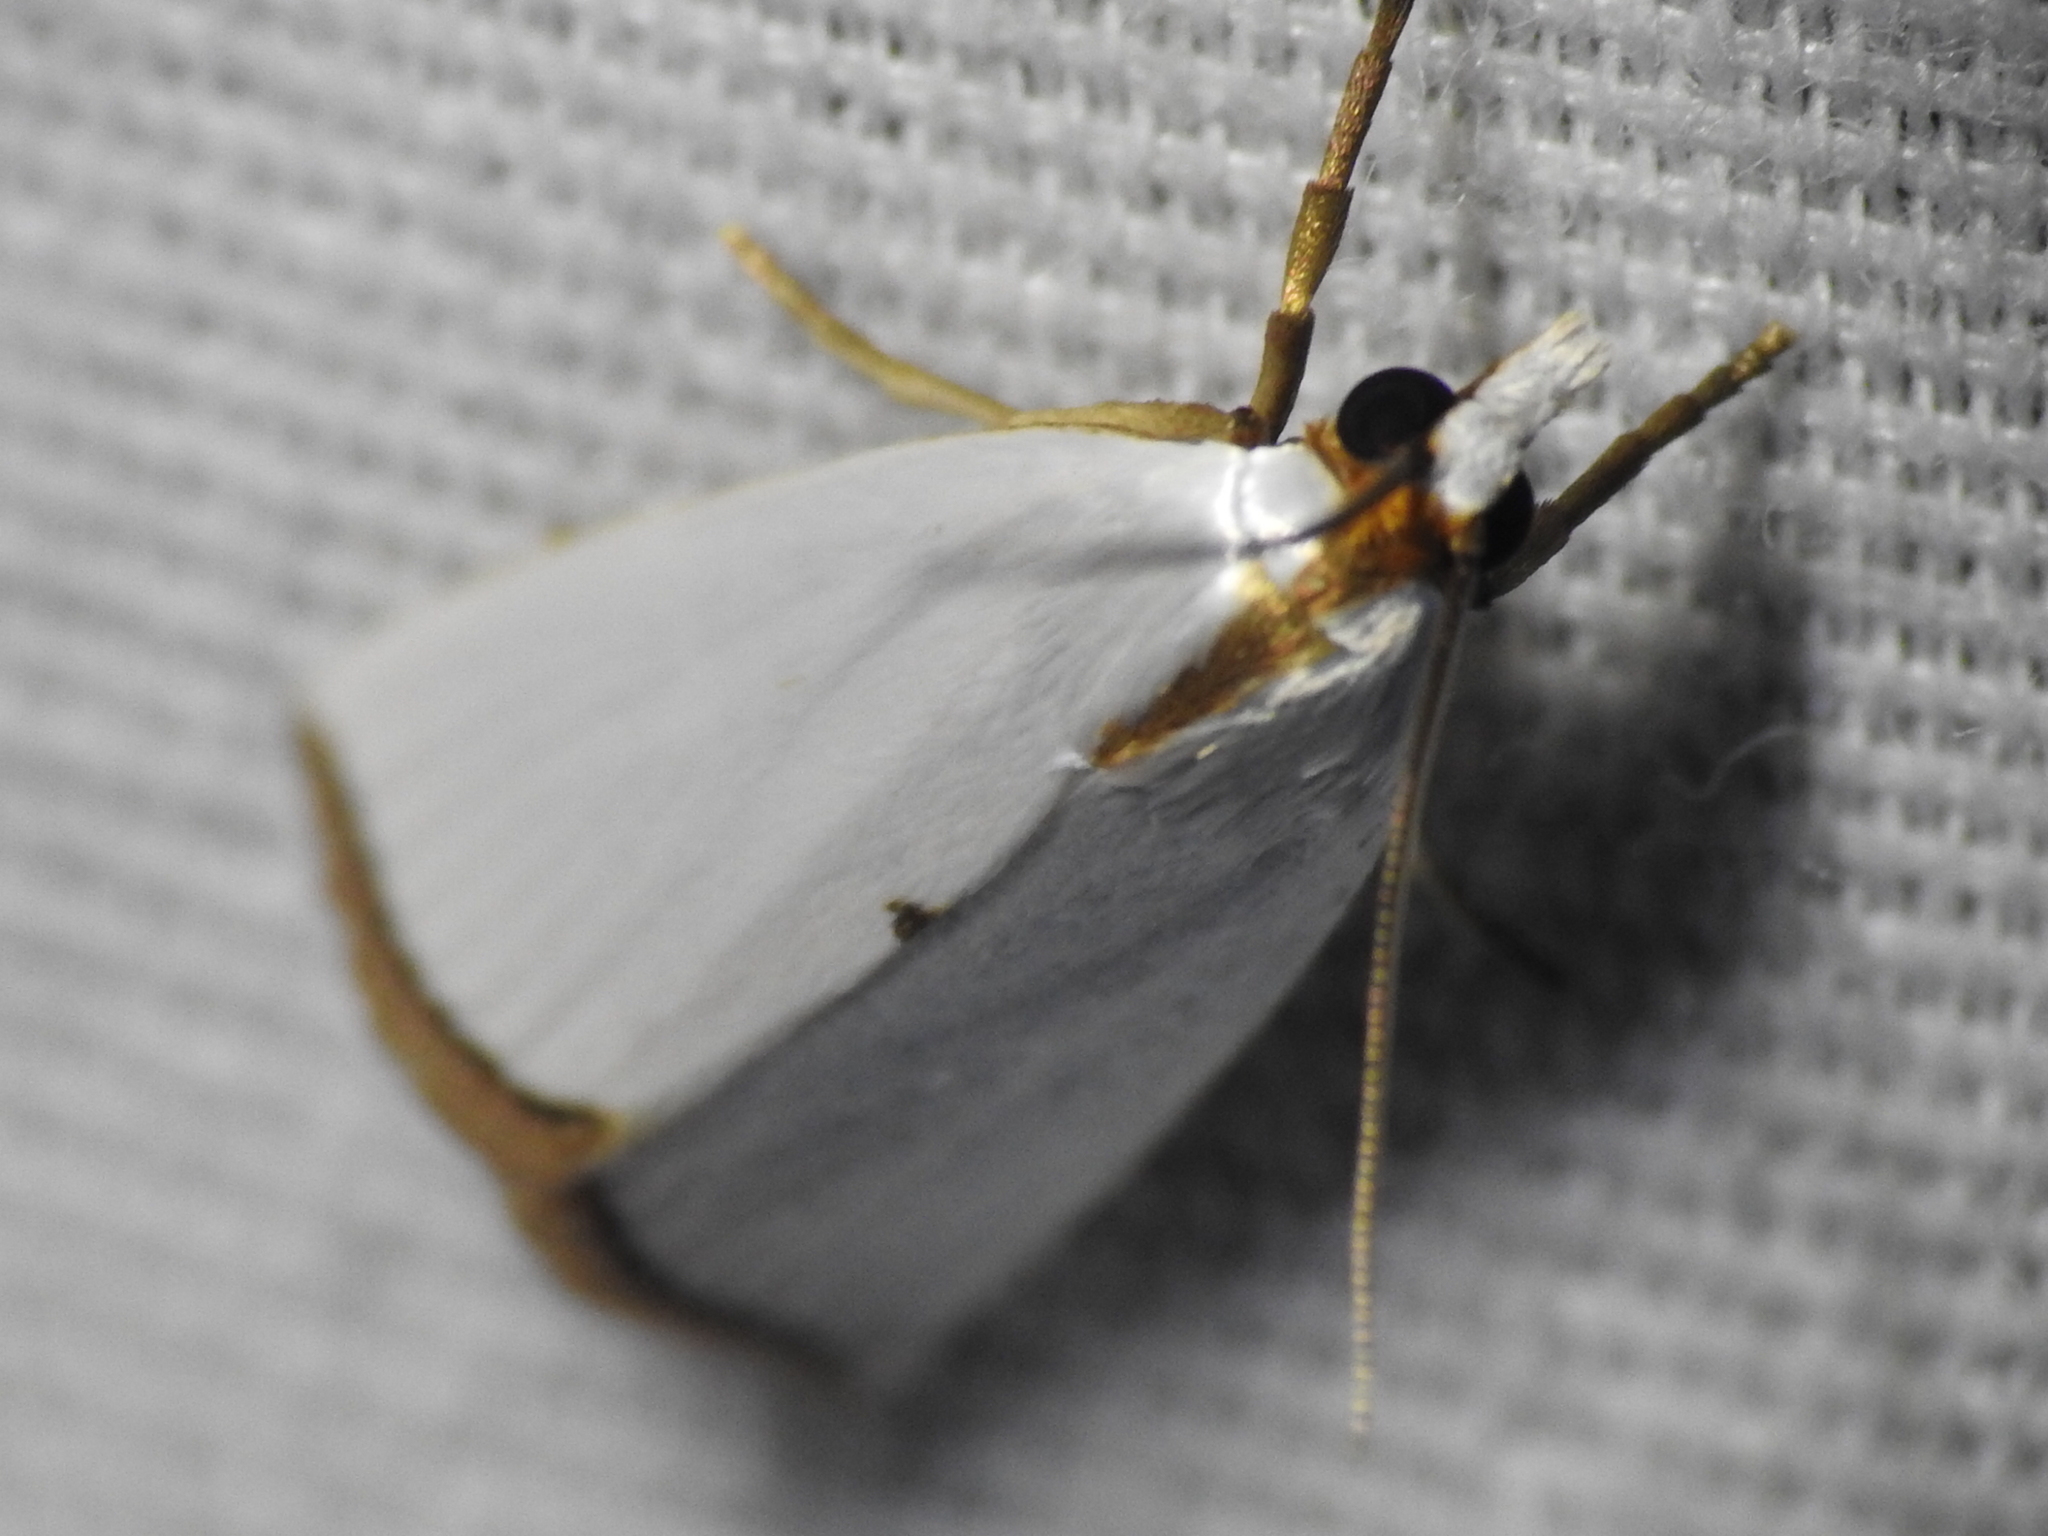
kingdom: Animalia
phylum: Arthropoda
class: Insecta
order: Lepidoptera
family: Crambidae
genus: Argyria
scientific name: Argyria nivalis
